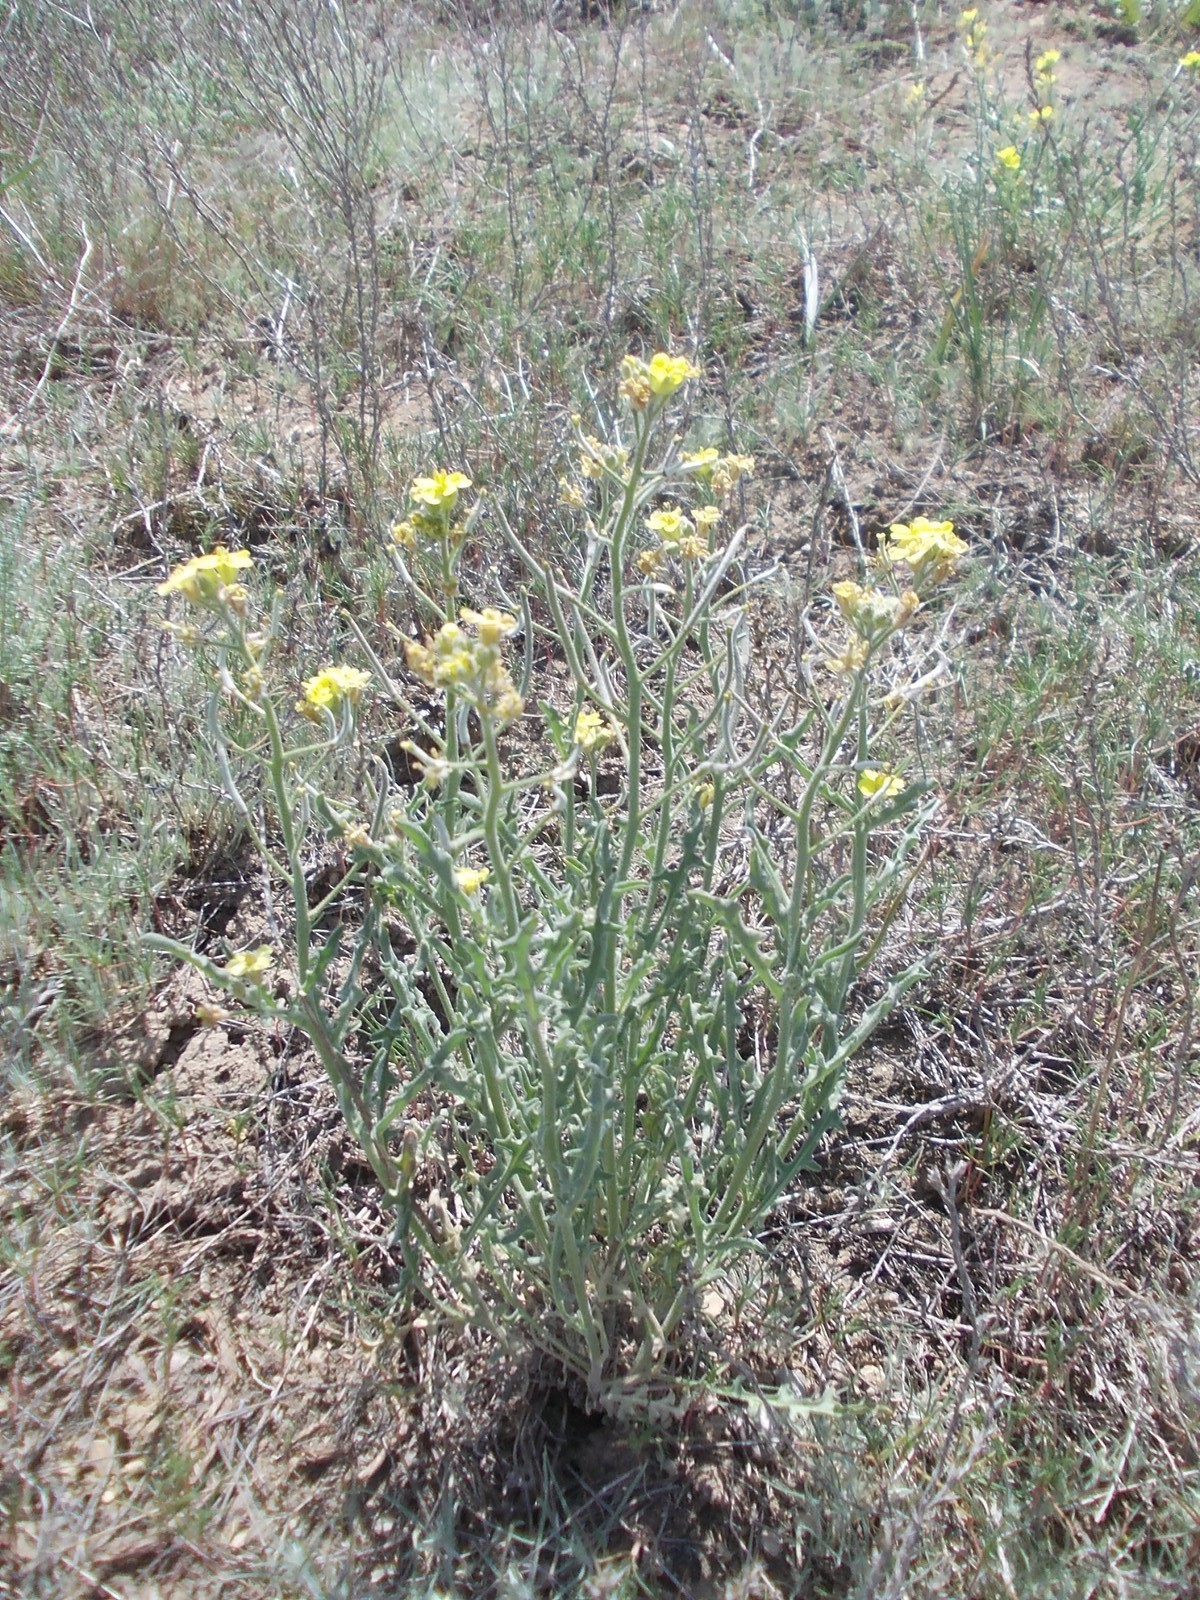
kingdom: Plantae
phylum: Tracheophyta
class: Magnoliopsida
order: Brassicales
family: Brassicaceae
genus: Sterigmostemum
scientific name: Sterigmostemum caspicum
